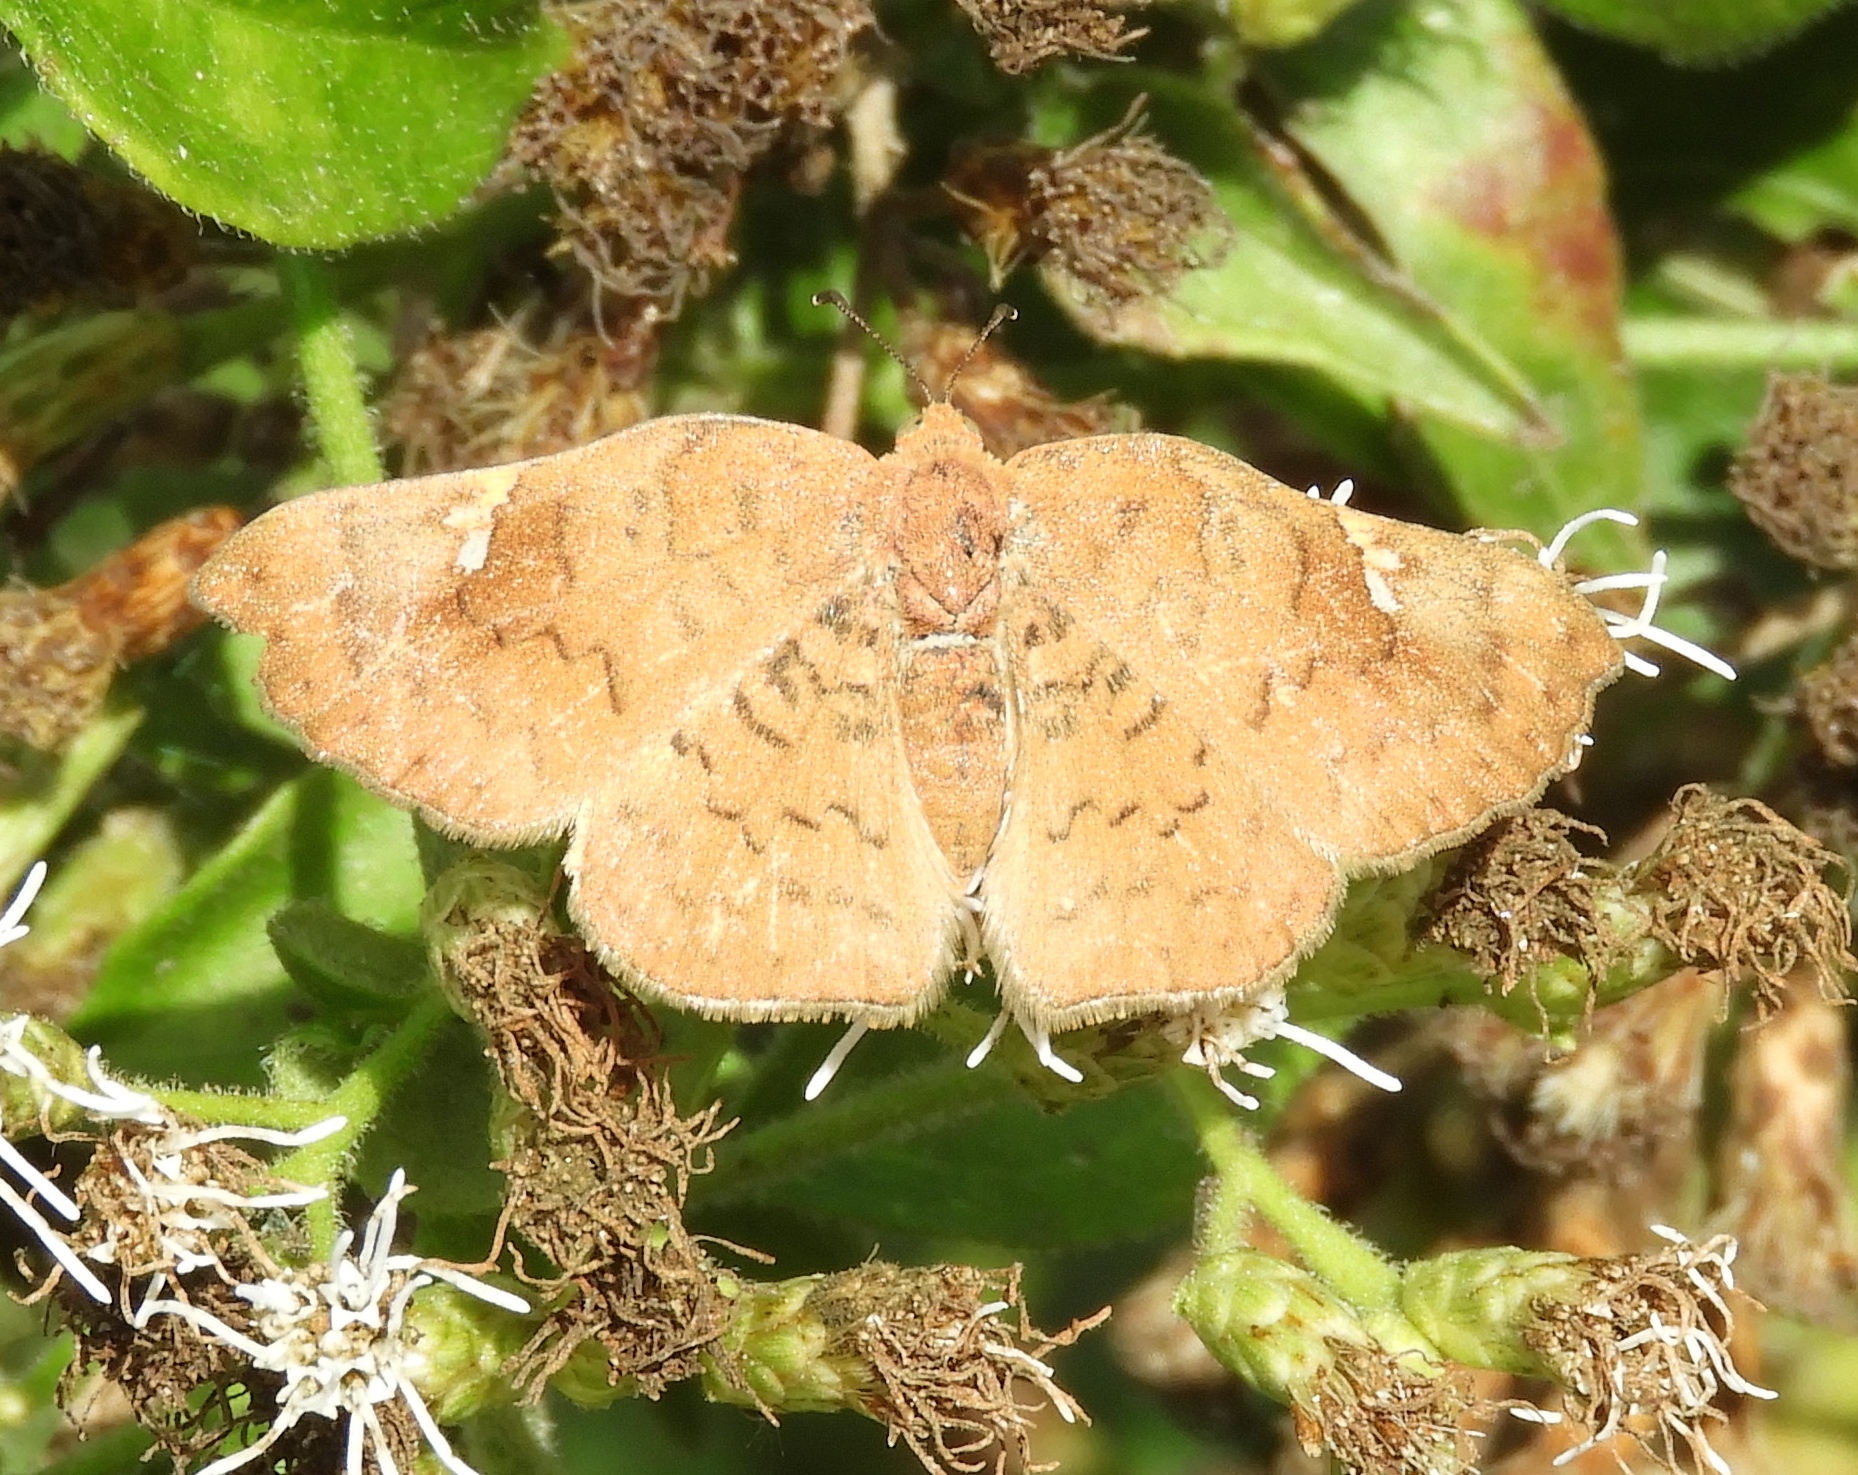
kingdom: Animalia
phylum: Arthropoda
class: Insecta
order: Lepidoptera
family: Riodinidae
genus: Curvie
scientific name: Curvie emesia
